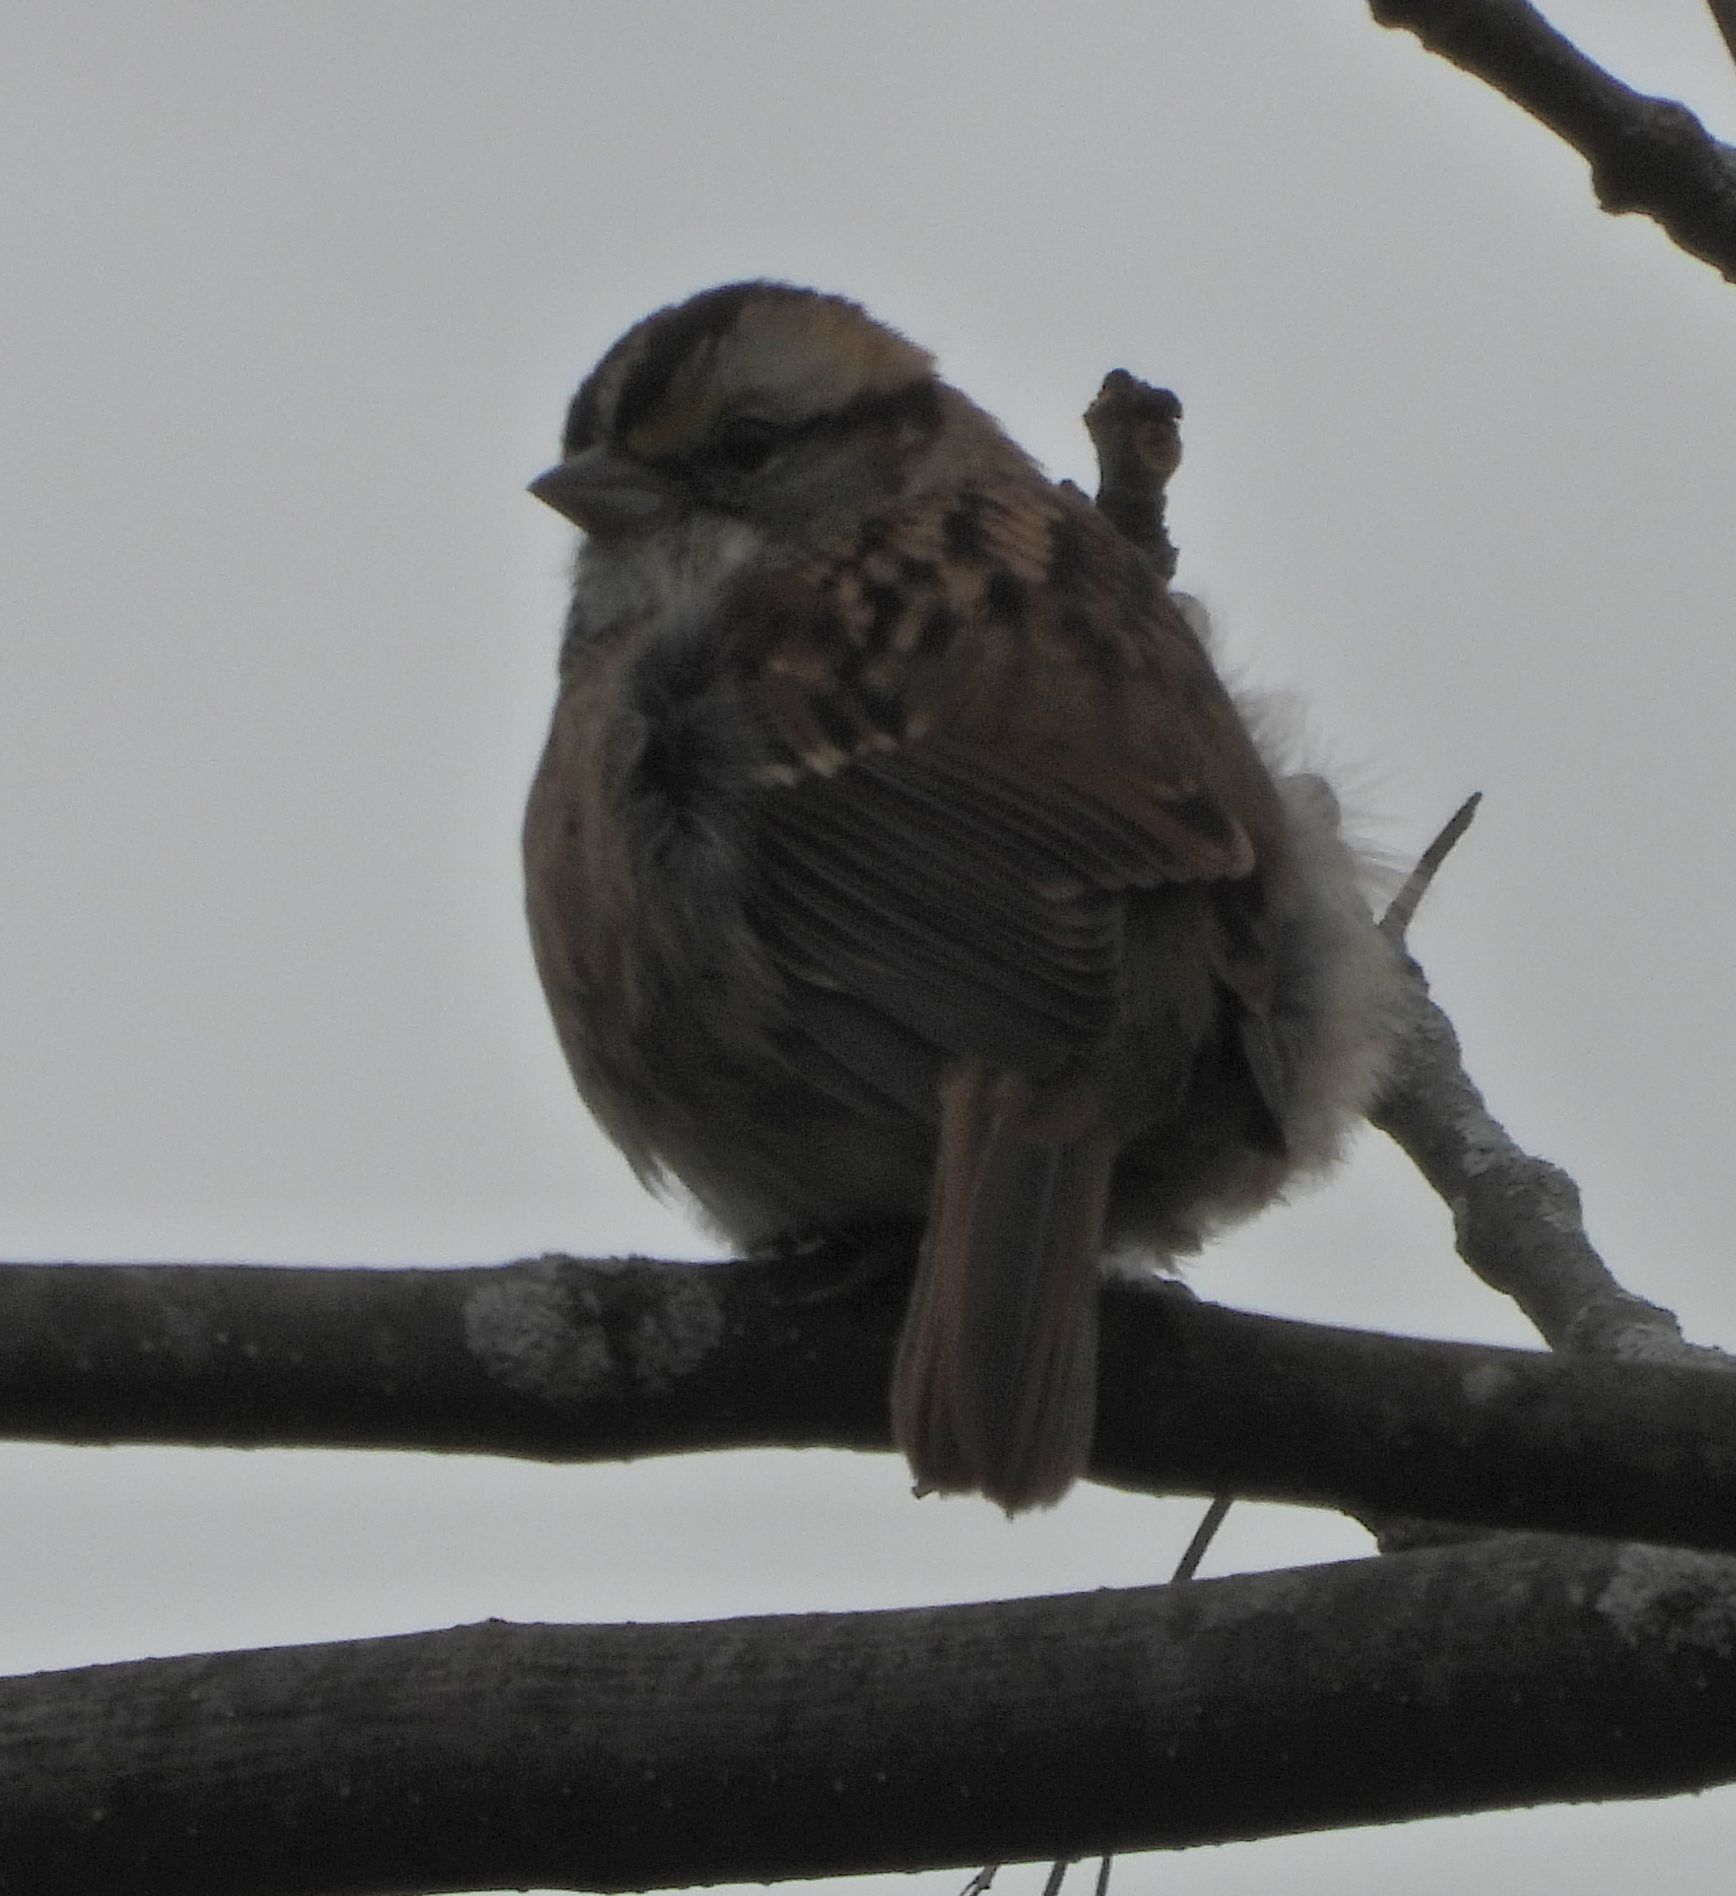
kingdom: Animalia
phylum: Chordata
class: Aves
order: Passeriformes
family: Passerellidae
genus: Zonotrichia
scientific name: Zonotrichia albicollis
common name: White-throated sparrow
